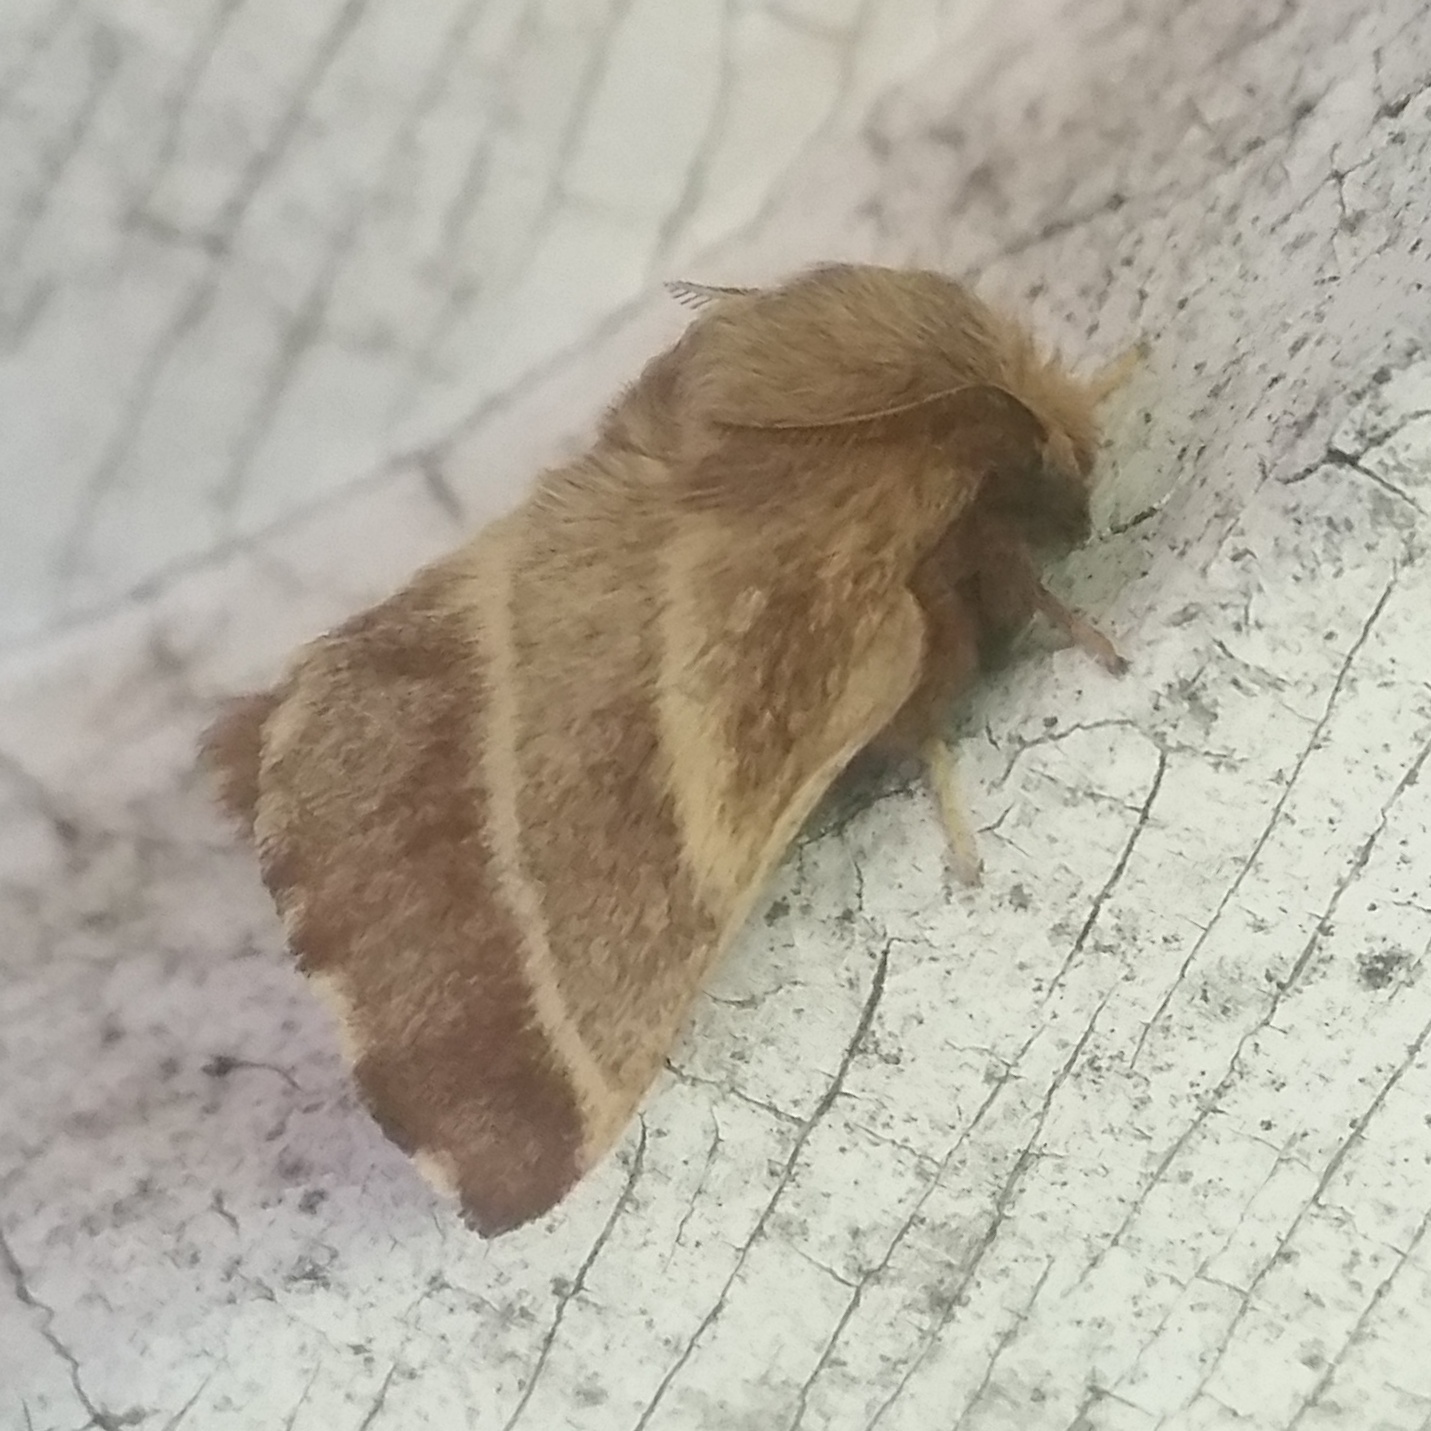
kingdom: Animalia
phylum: Arthropoda
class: Insecta
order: Lepidoptera
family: Lasiocampidae
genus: Malacosoma
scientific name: Malacosoma americana
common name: Eastern tent caterpillar moth
